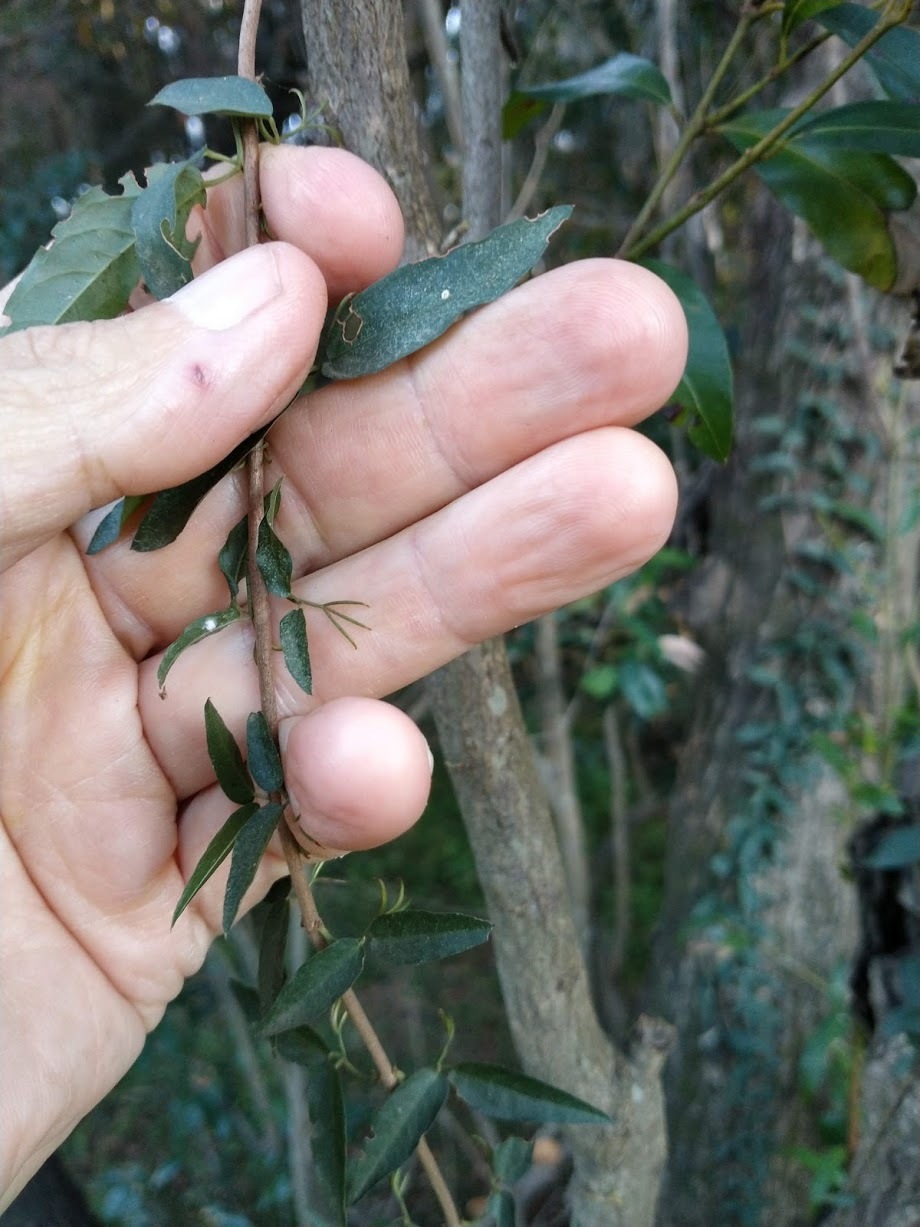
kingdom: Plantae
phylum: Tracheophyta
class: Magnoliopsida
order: Lamiales
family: Bignoniaceae
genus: Dolichandra
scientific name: Dolichandra unguis-cati
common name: Catclaw vine
